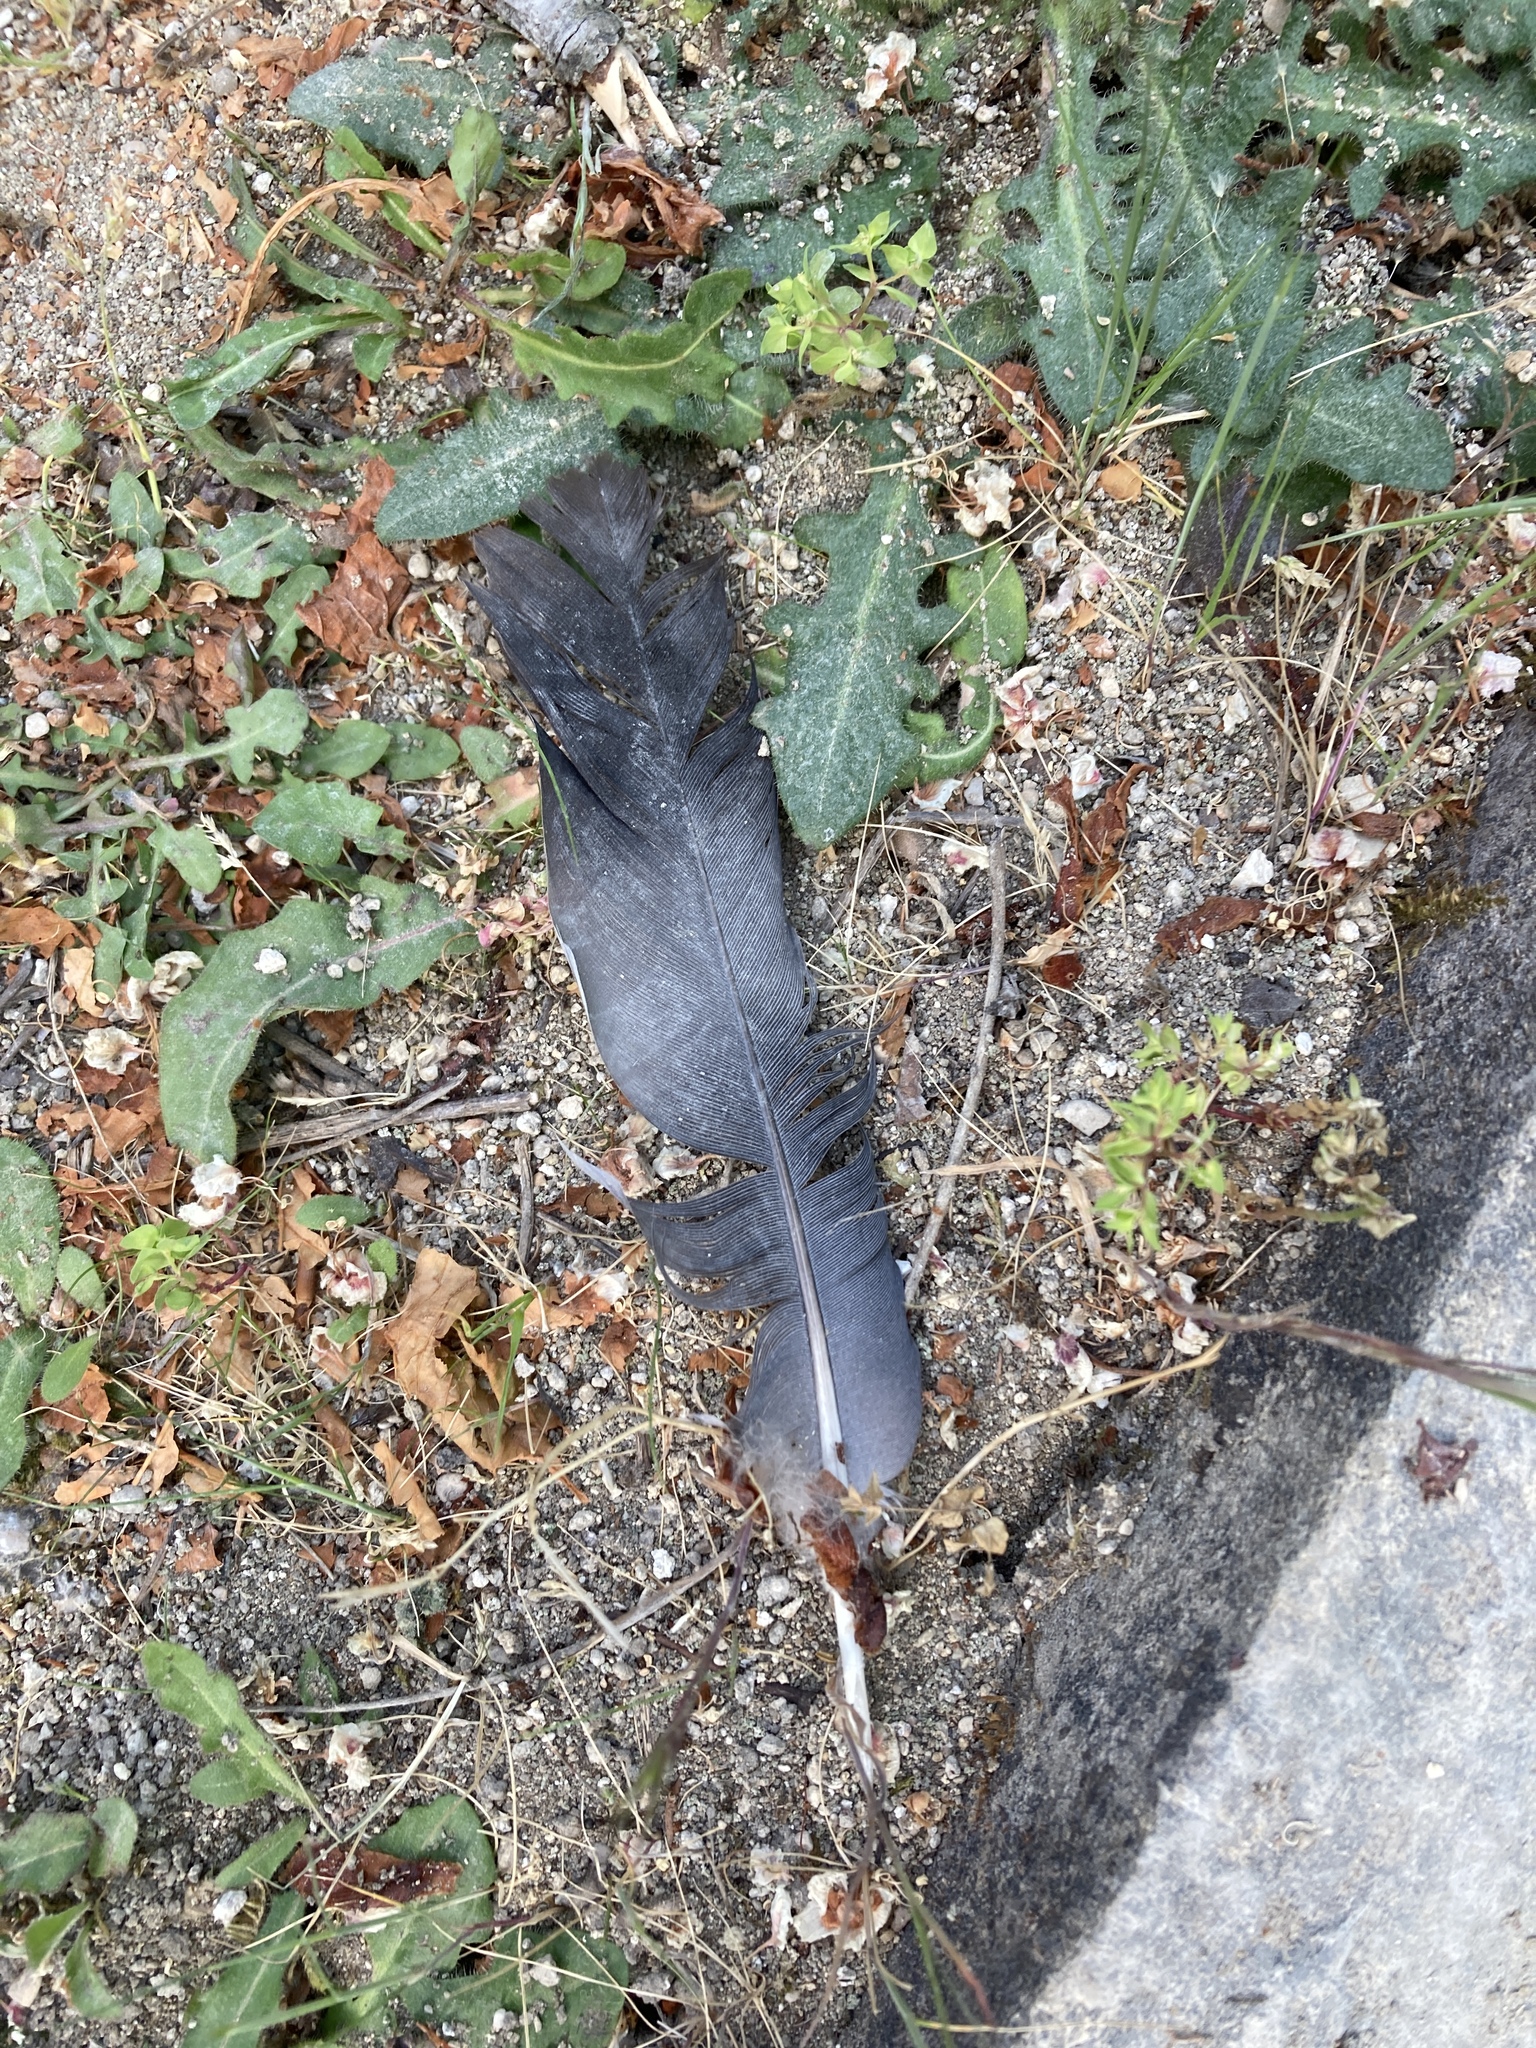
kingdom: Animalia
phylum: Chordata
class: Aves
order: Columbiformes
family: Columbidae
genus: Columba
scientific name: Columba palumbus
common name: Common wood pigeon
